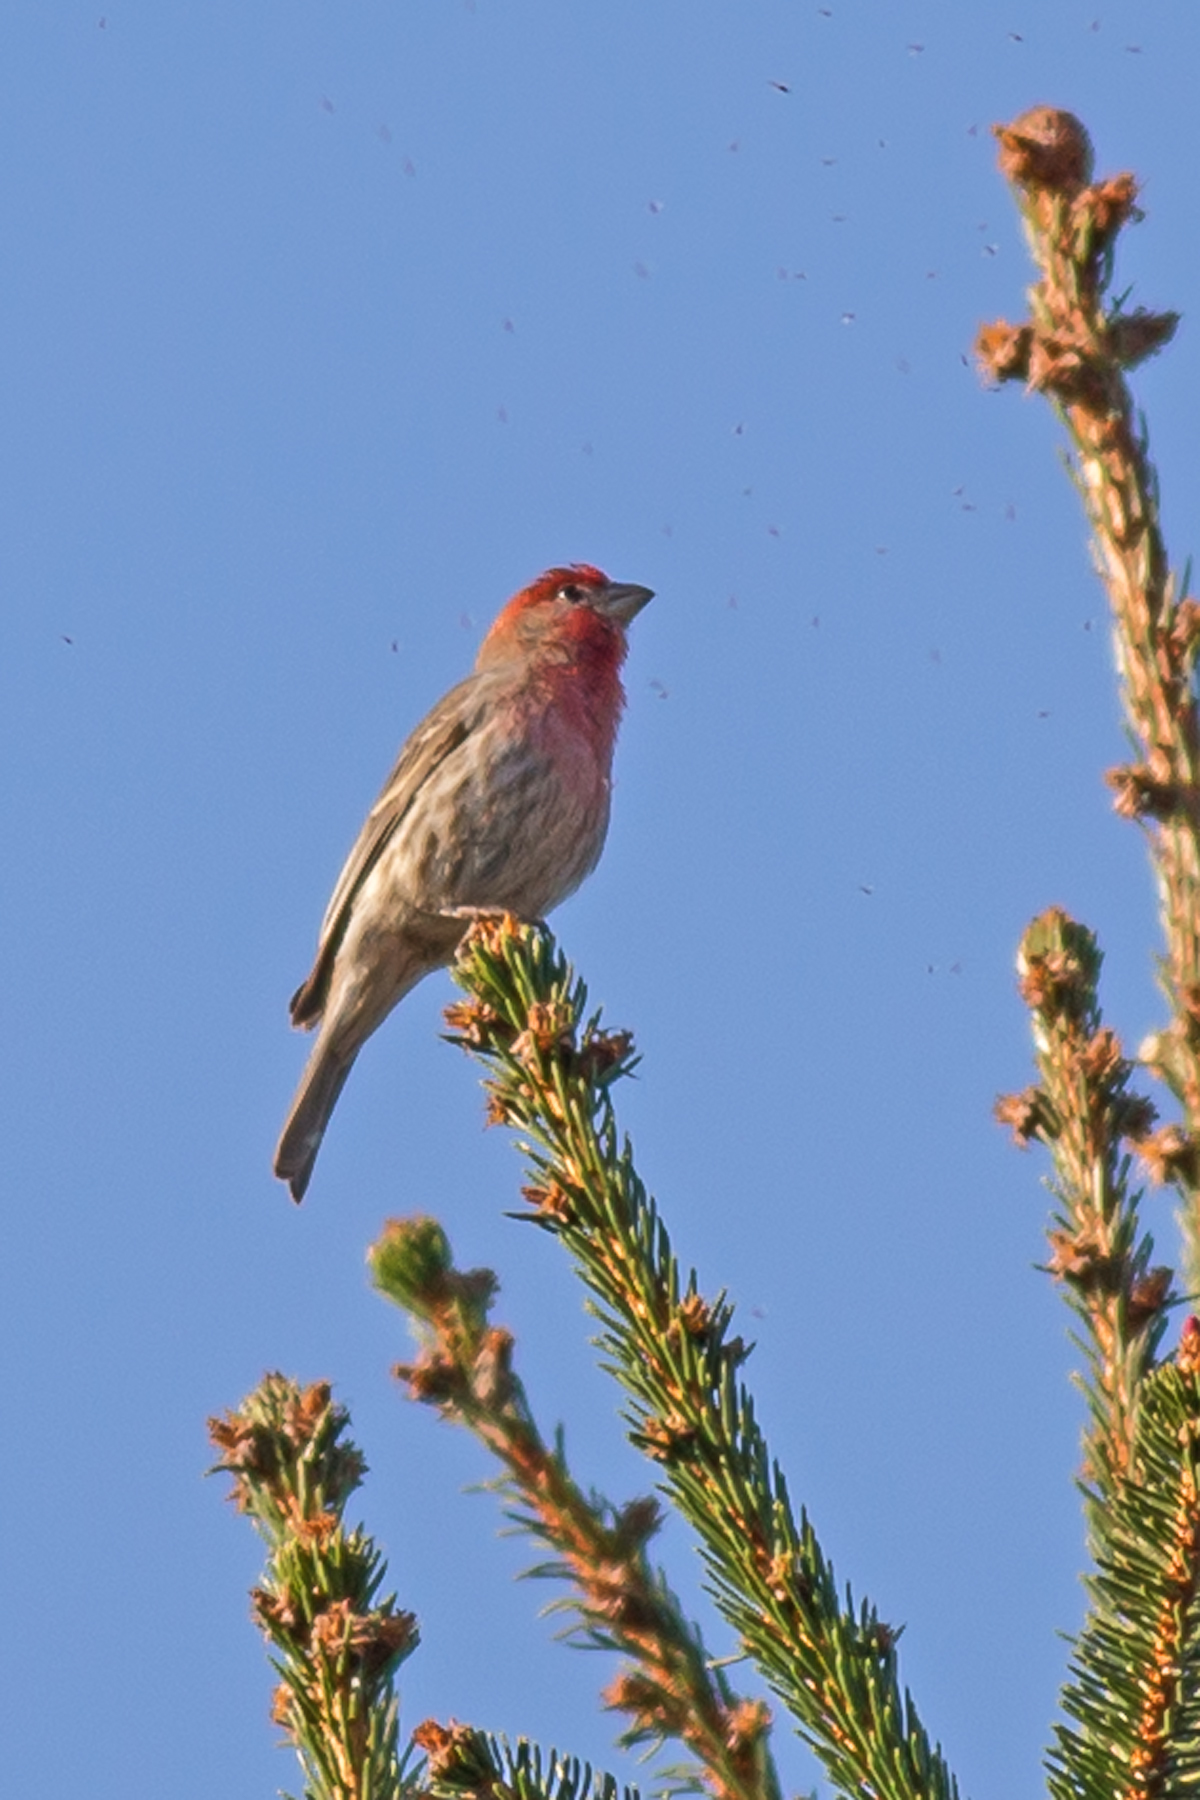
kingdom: Animalia
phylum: Chordata
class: Aves
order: Passeriformes
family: Fringillidae
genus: Haemorhous
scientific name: Haemorhous mexicanus
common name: House finch
